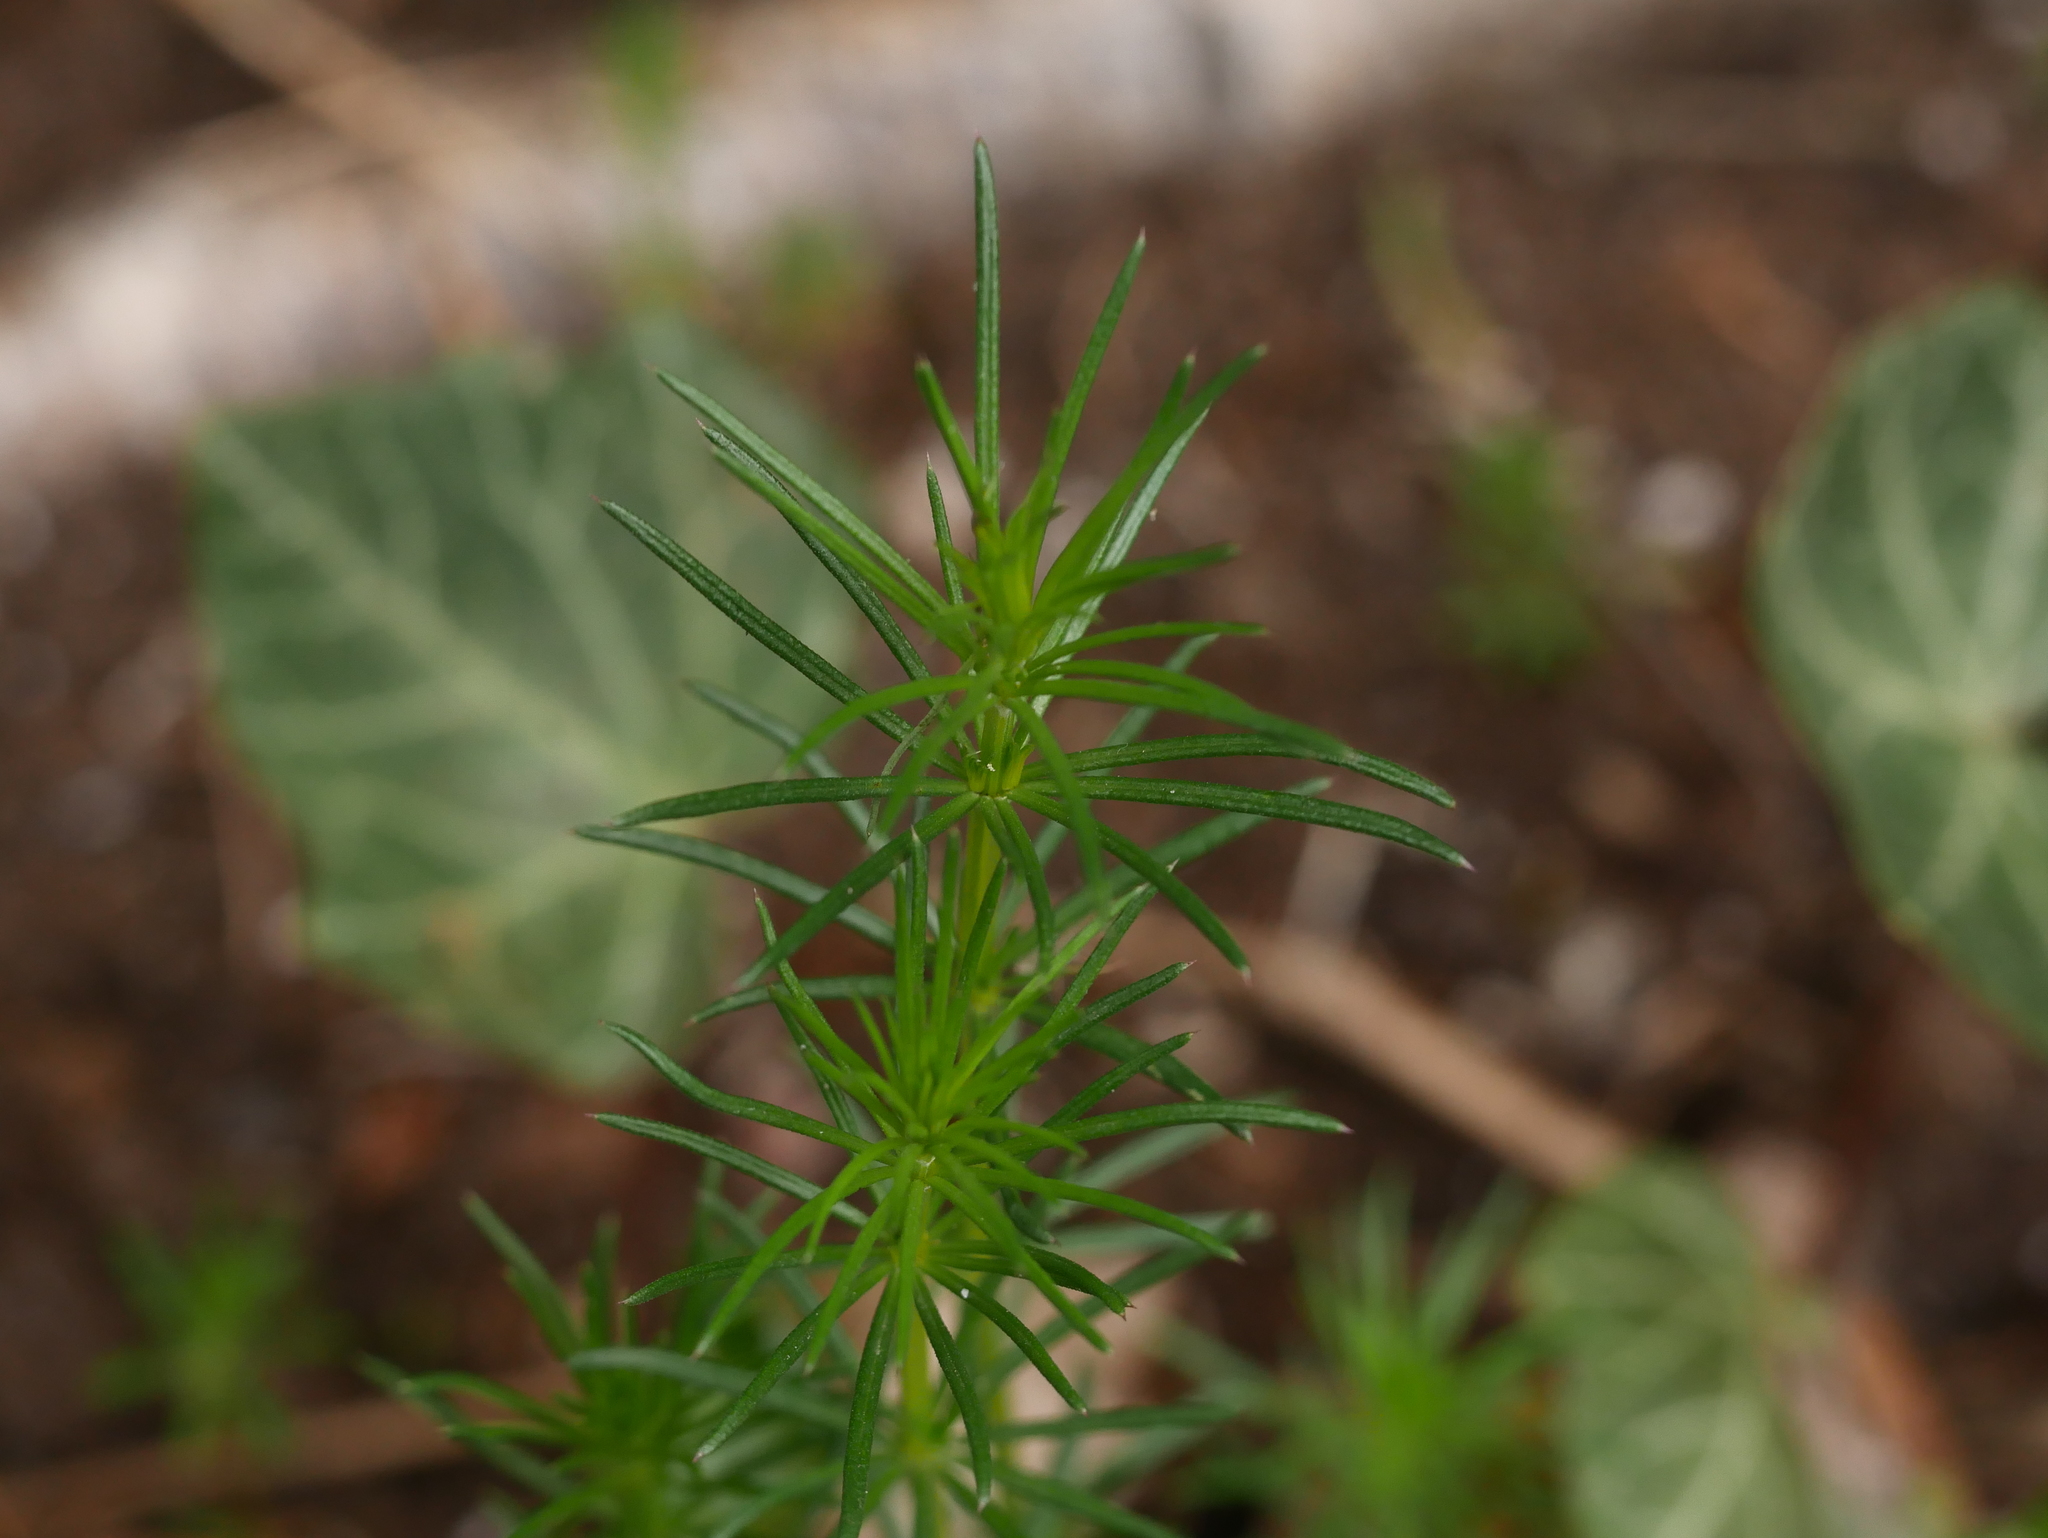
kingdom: Plantae
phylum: Tracheophyta
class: Magnoliopsida
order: Gentianales
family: Rubiaceae
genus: Galium
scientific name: Galium verum
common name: Lady's bedstraw
